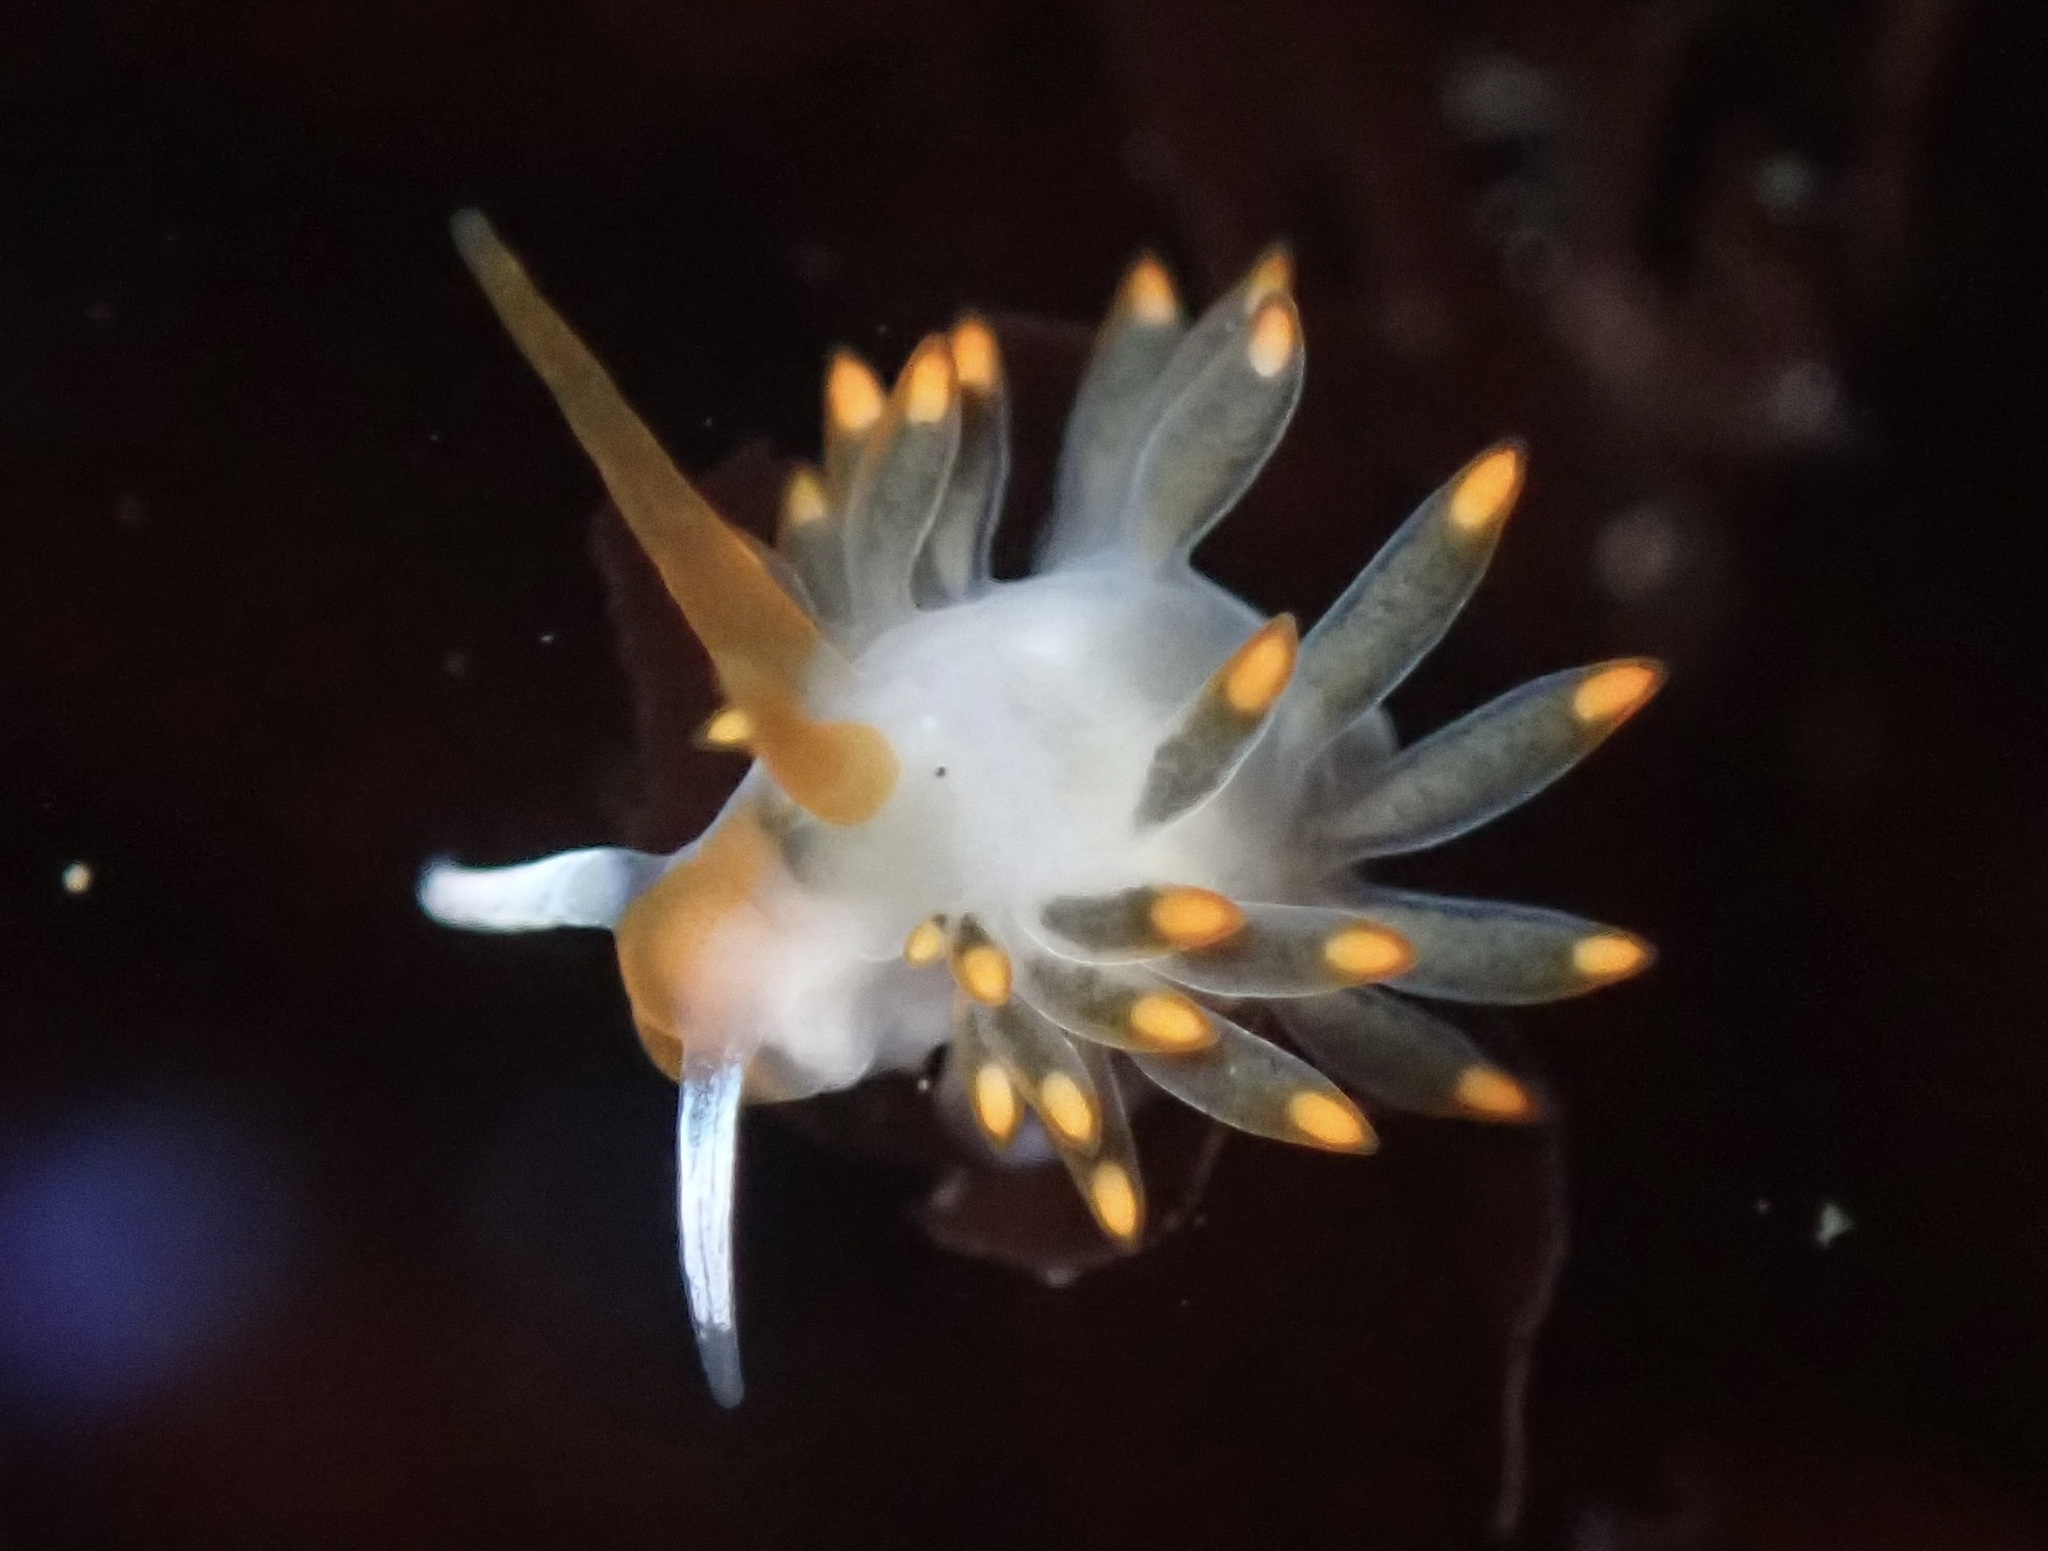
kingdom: Animalia
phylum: Mollusca
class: Gastropoda
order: Nudibranchia
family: Trinchesiidae
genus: Diaphoreolis
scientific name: Diaphoreolis lagunae
